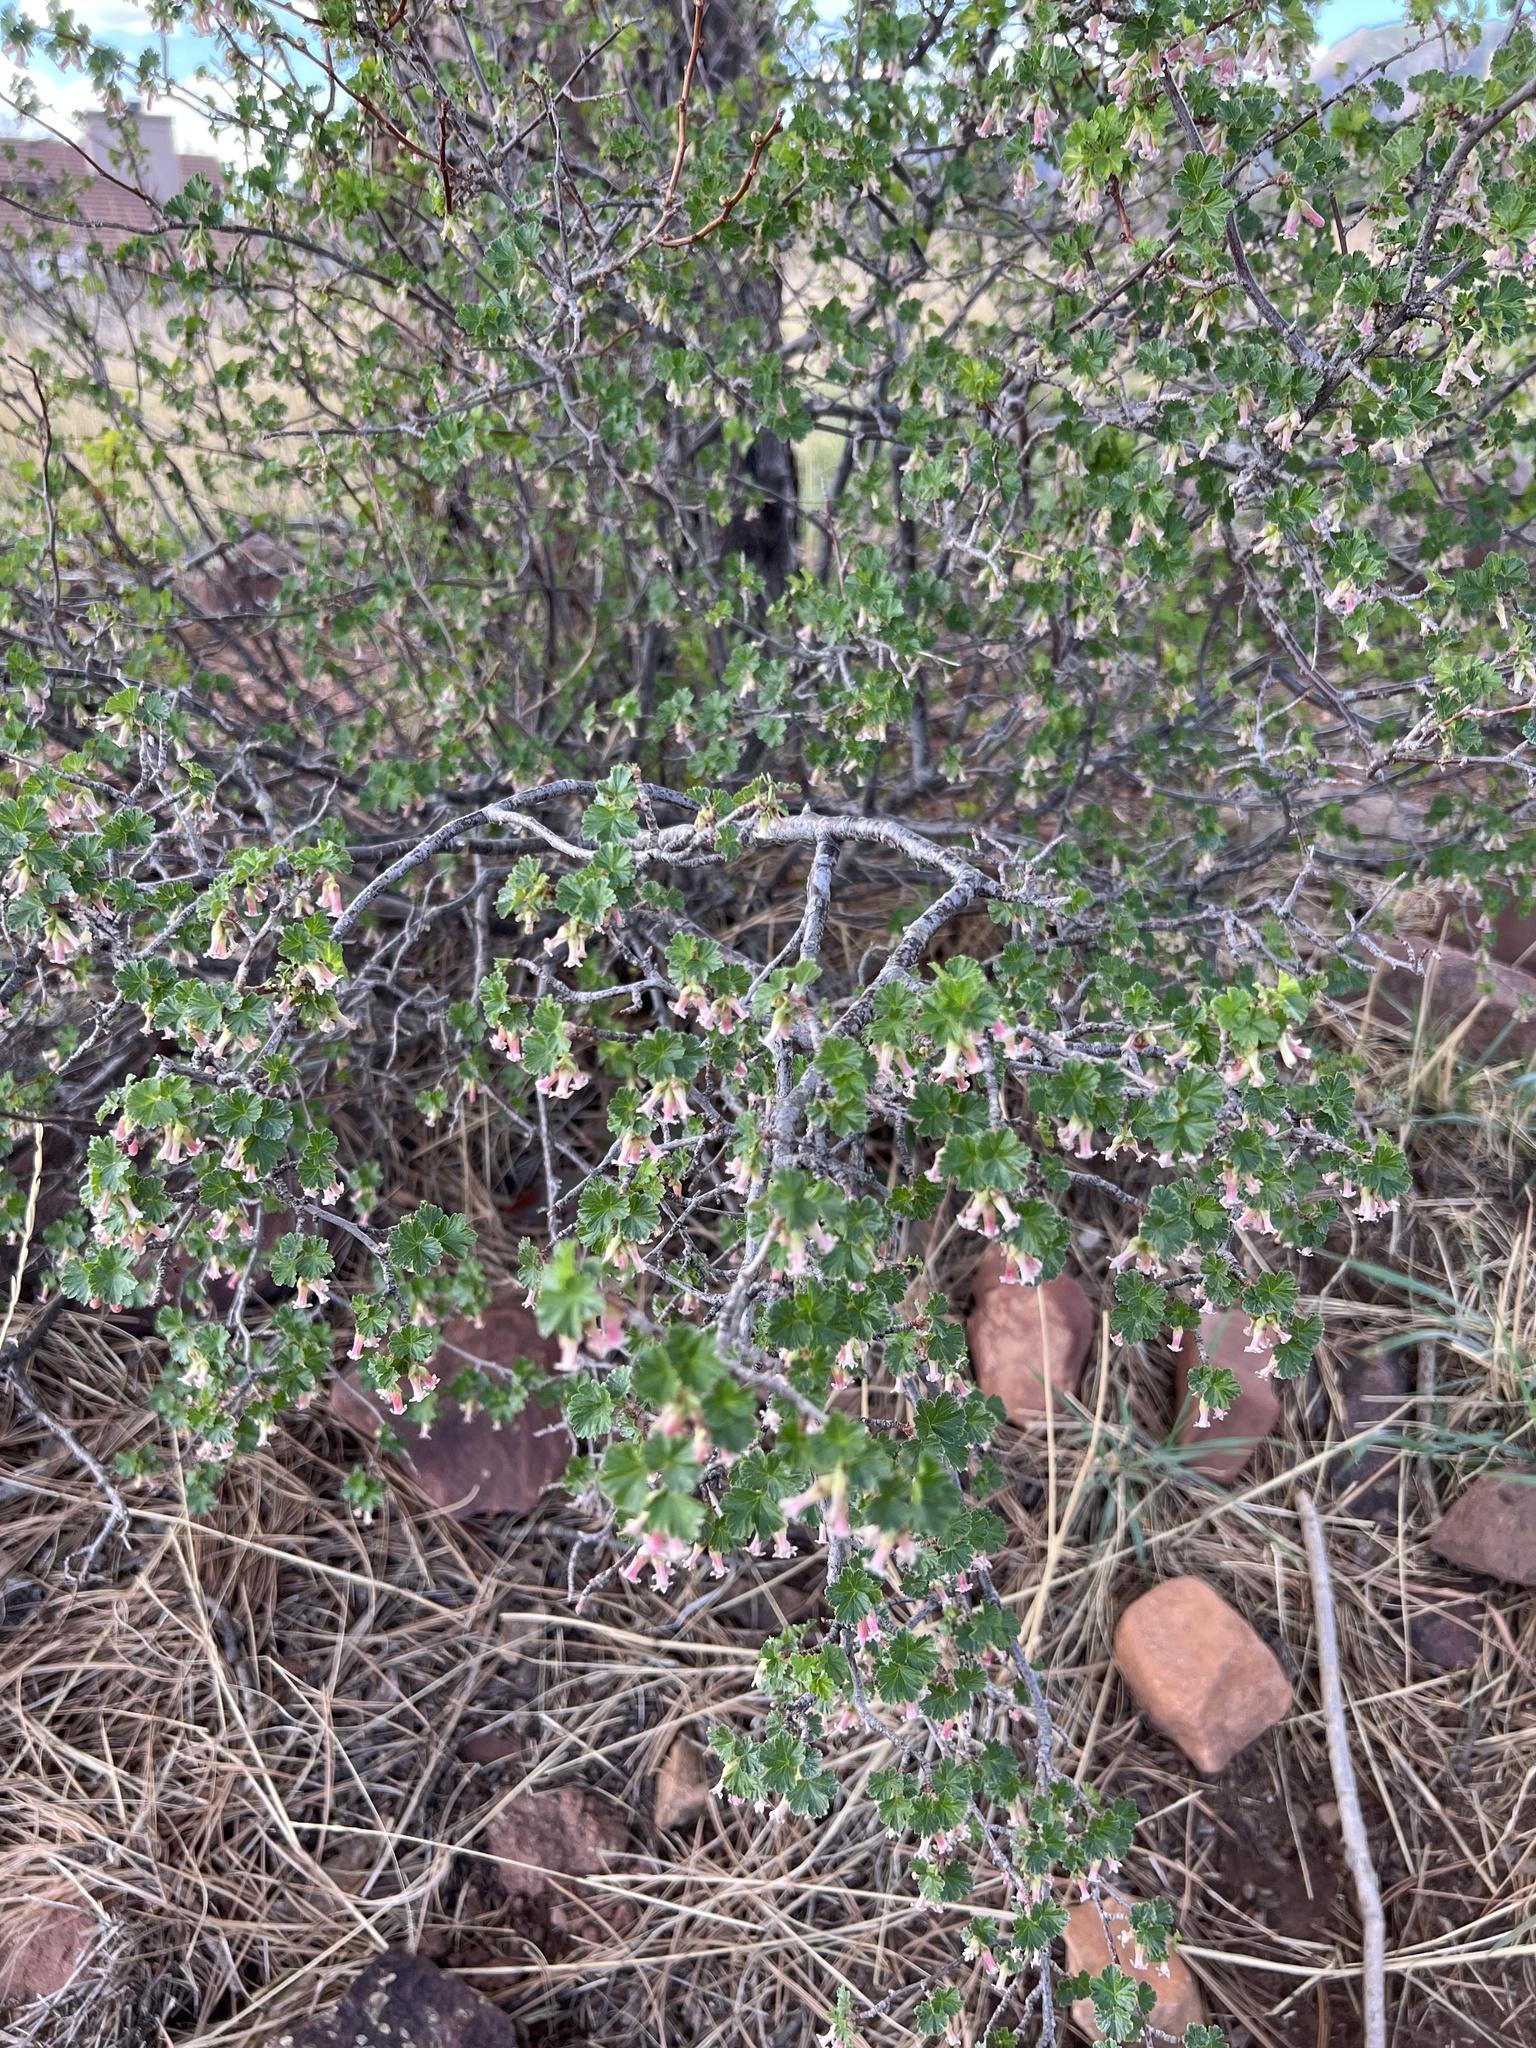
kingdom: Plantae
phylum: Tracheophyta
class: Magnoliopsida
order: Saxifragales
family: Grossulariaceae
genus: Ribes
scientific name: Ribes cereum
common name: Wax currant
